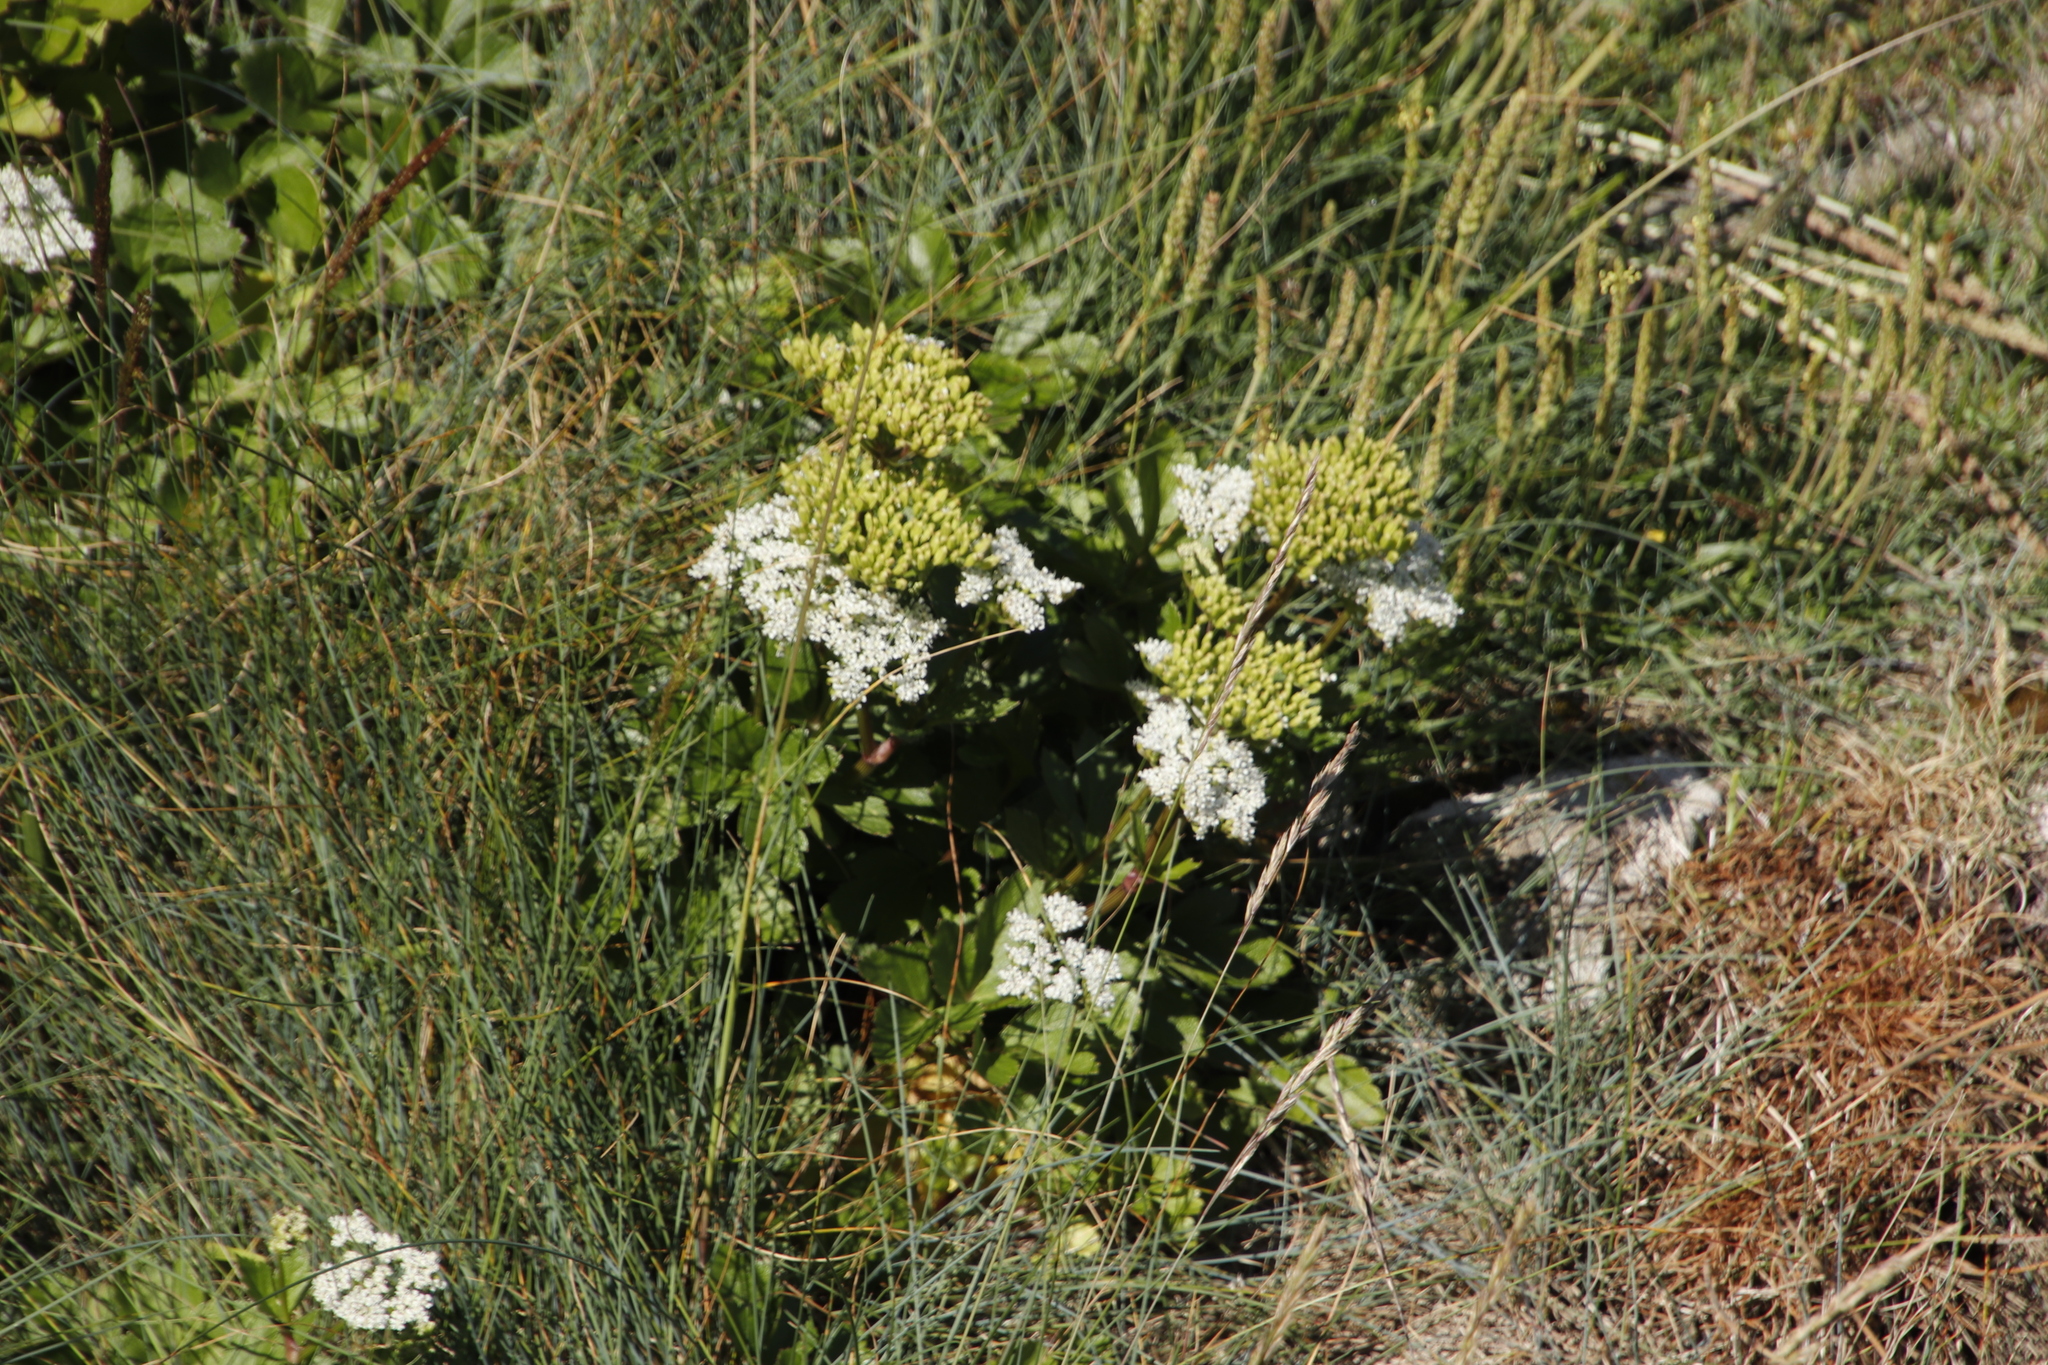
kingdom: Plantae
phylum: Tracheophyta
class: Magnoliopsida
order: Apiales
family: Apiaceae
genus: Ligusticum
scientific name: Ligusticum scothicum
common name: Beach lovage
